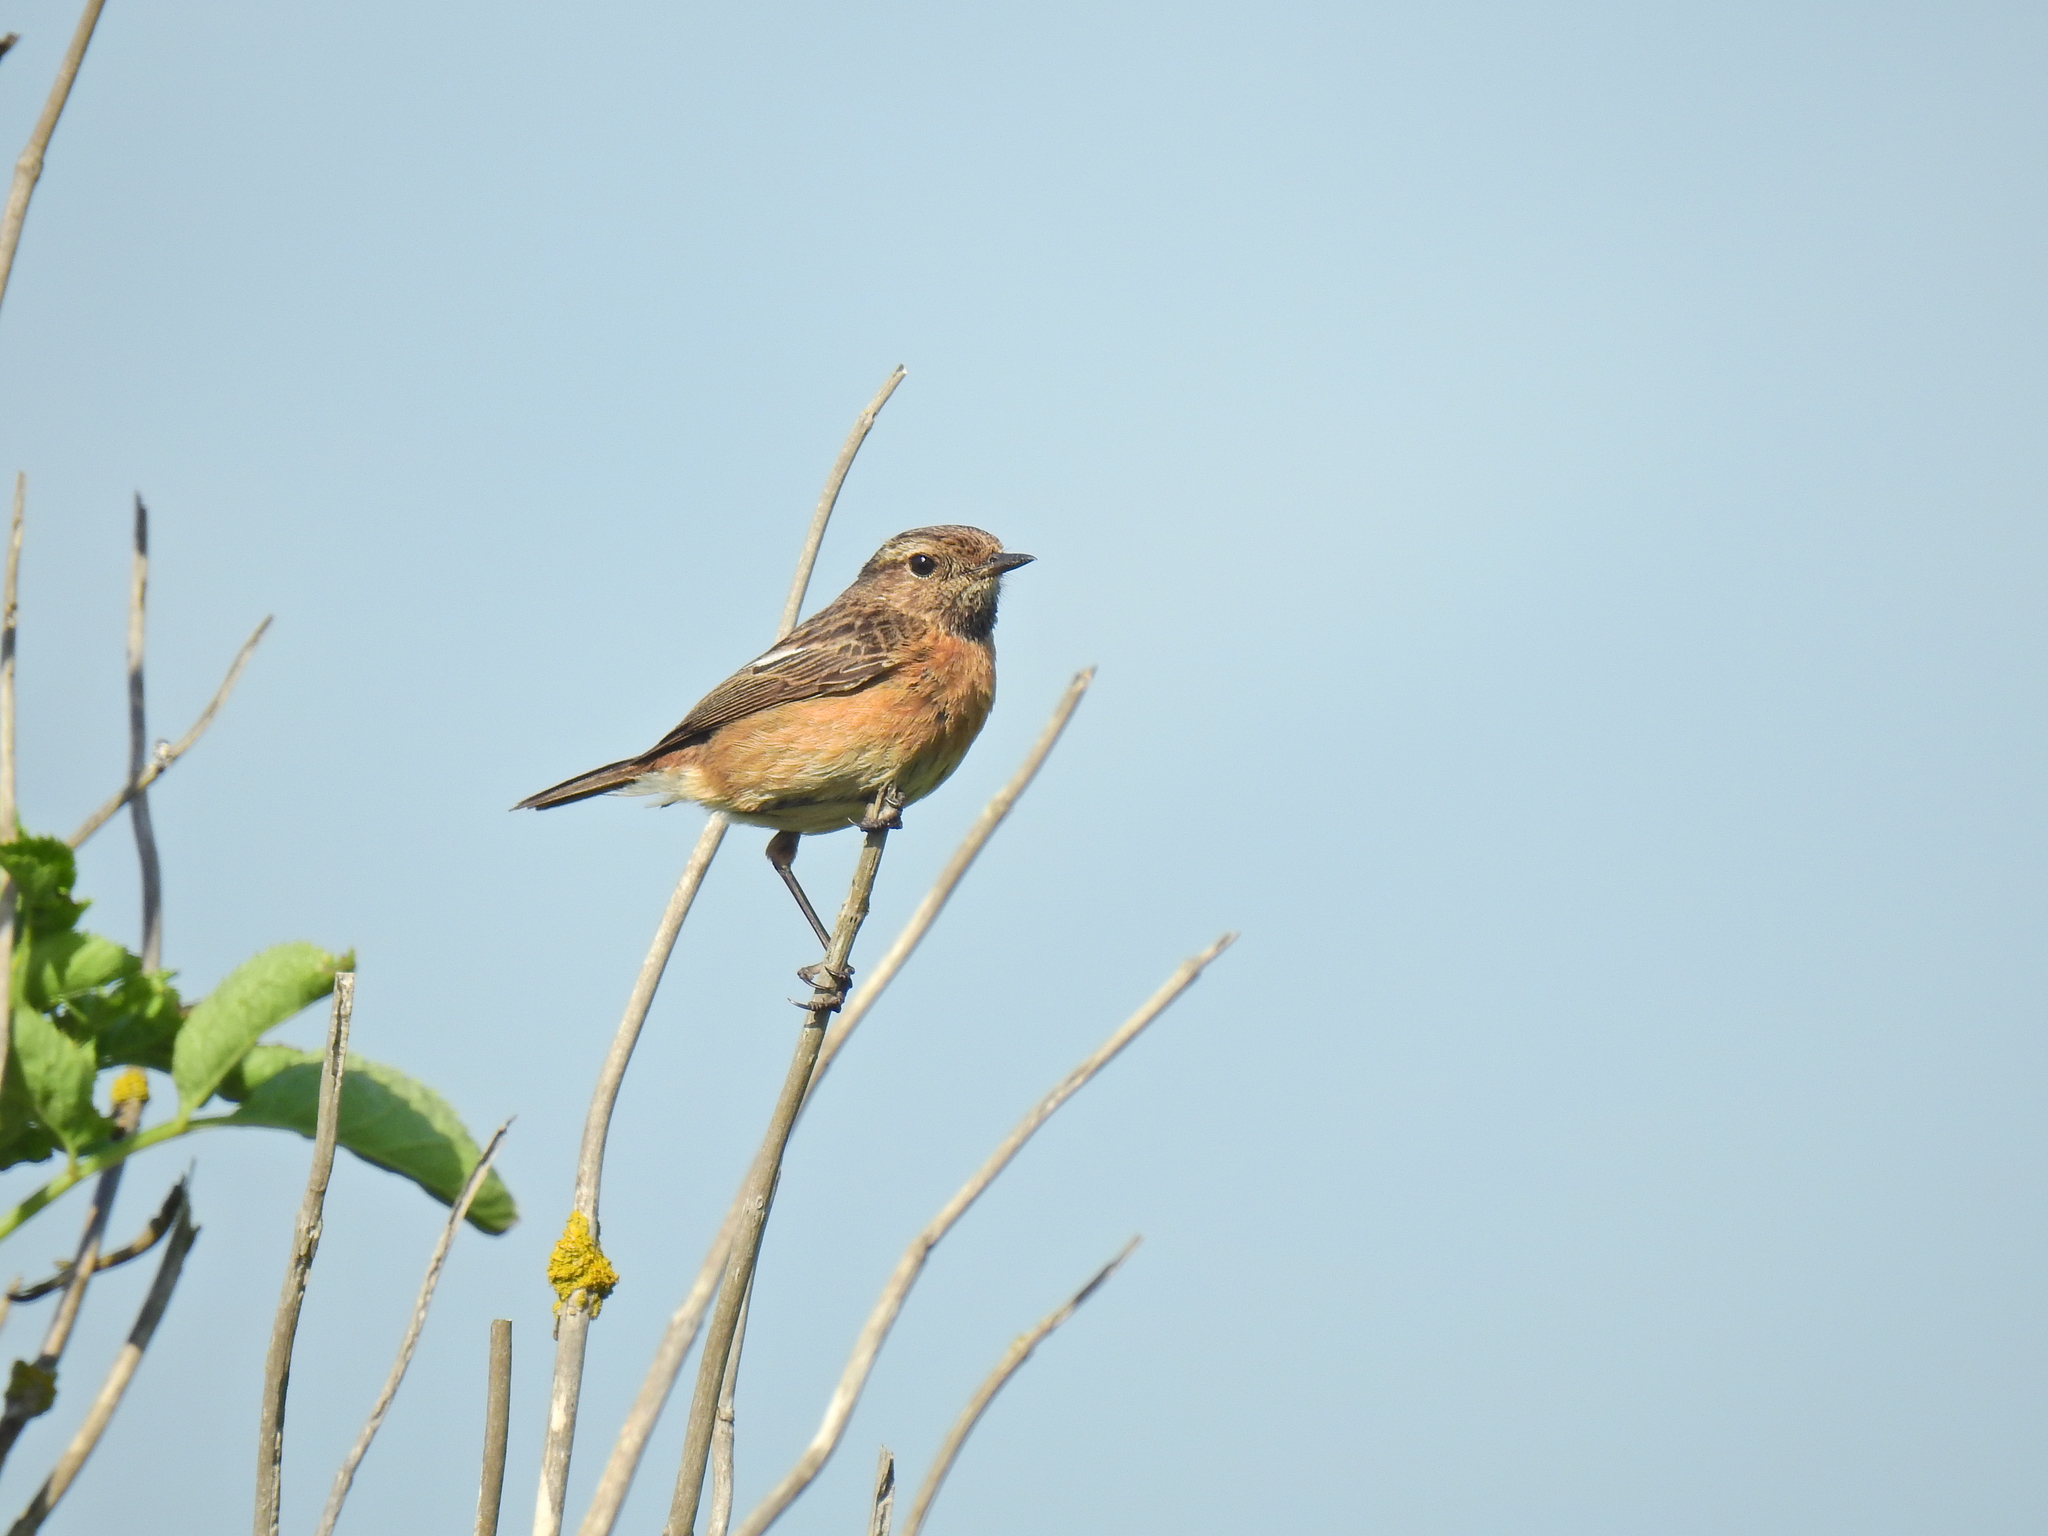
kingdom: Animalia
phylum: Chordata
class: Aves
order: Passeriformes
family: Muscicapidae
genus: Saxicola
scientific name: Saxicola rubicola
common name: European stonechat
